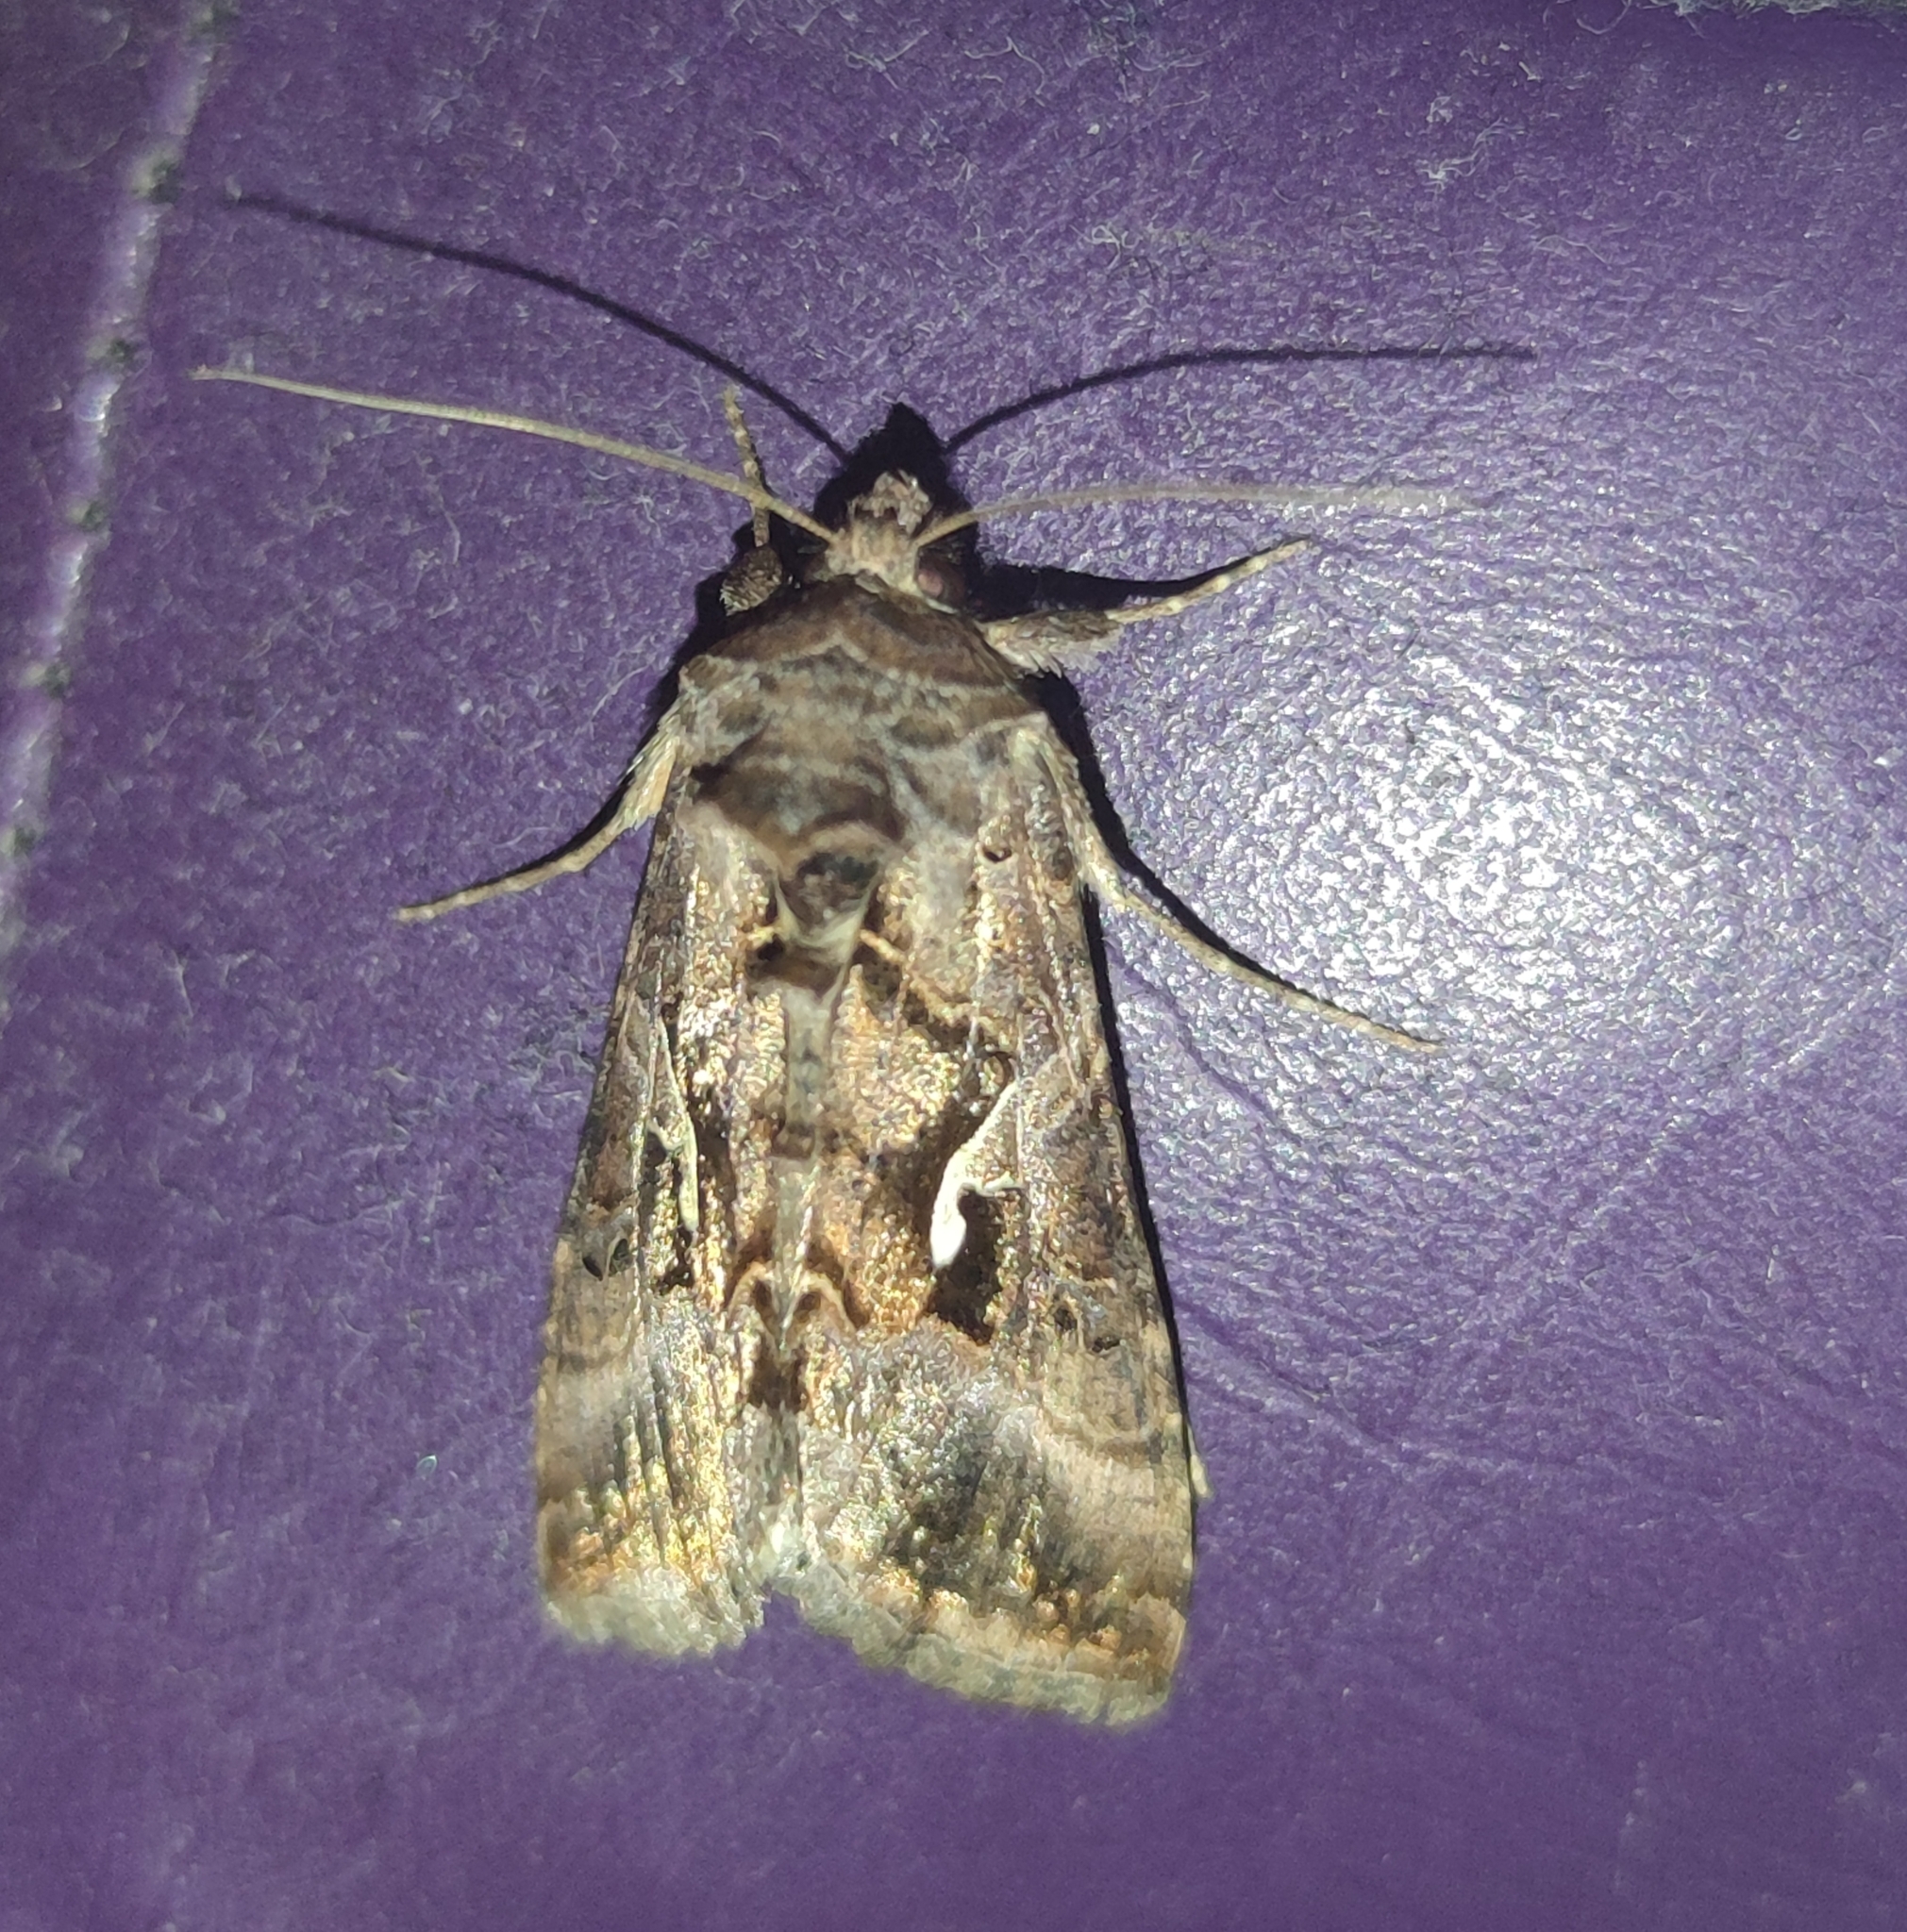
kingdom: Animalia
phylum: Arthropoda
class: Insecta
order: Lepidoptera
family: Noctuidae
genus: Autographa
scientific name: Autographa gamma
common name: Silver y
